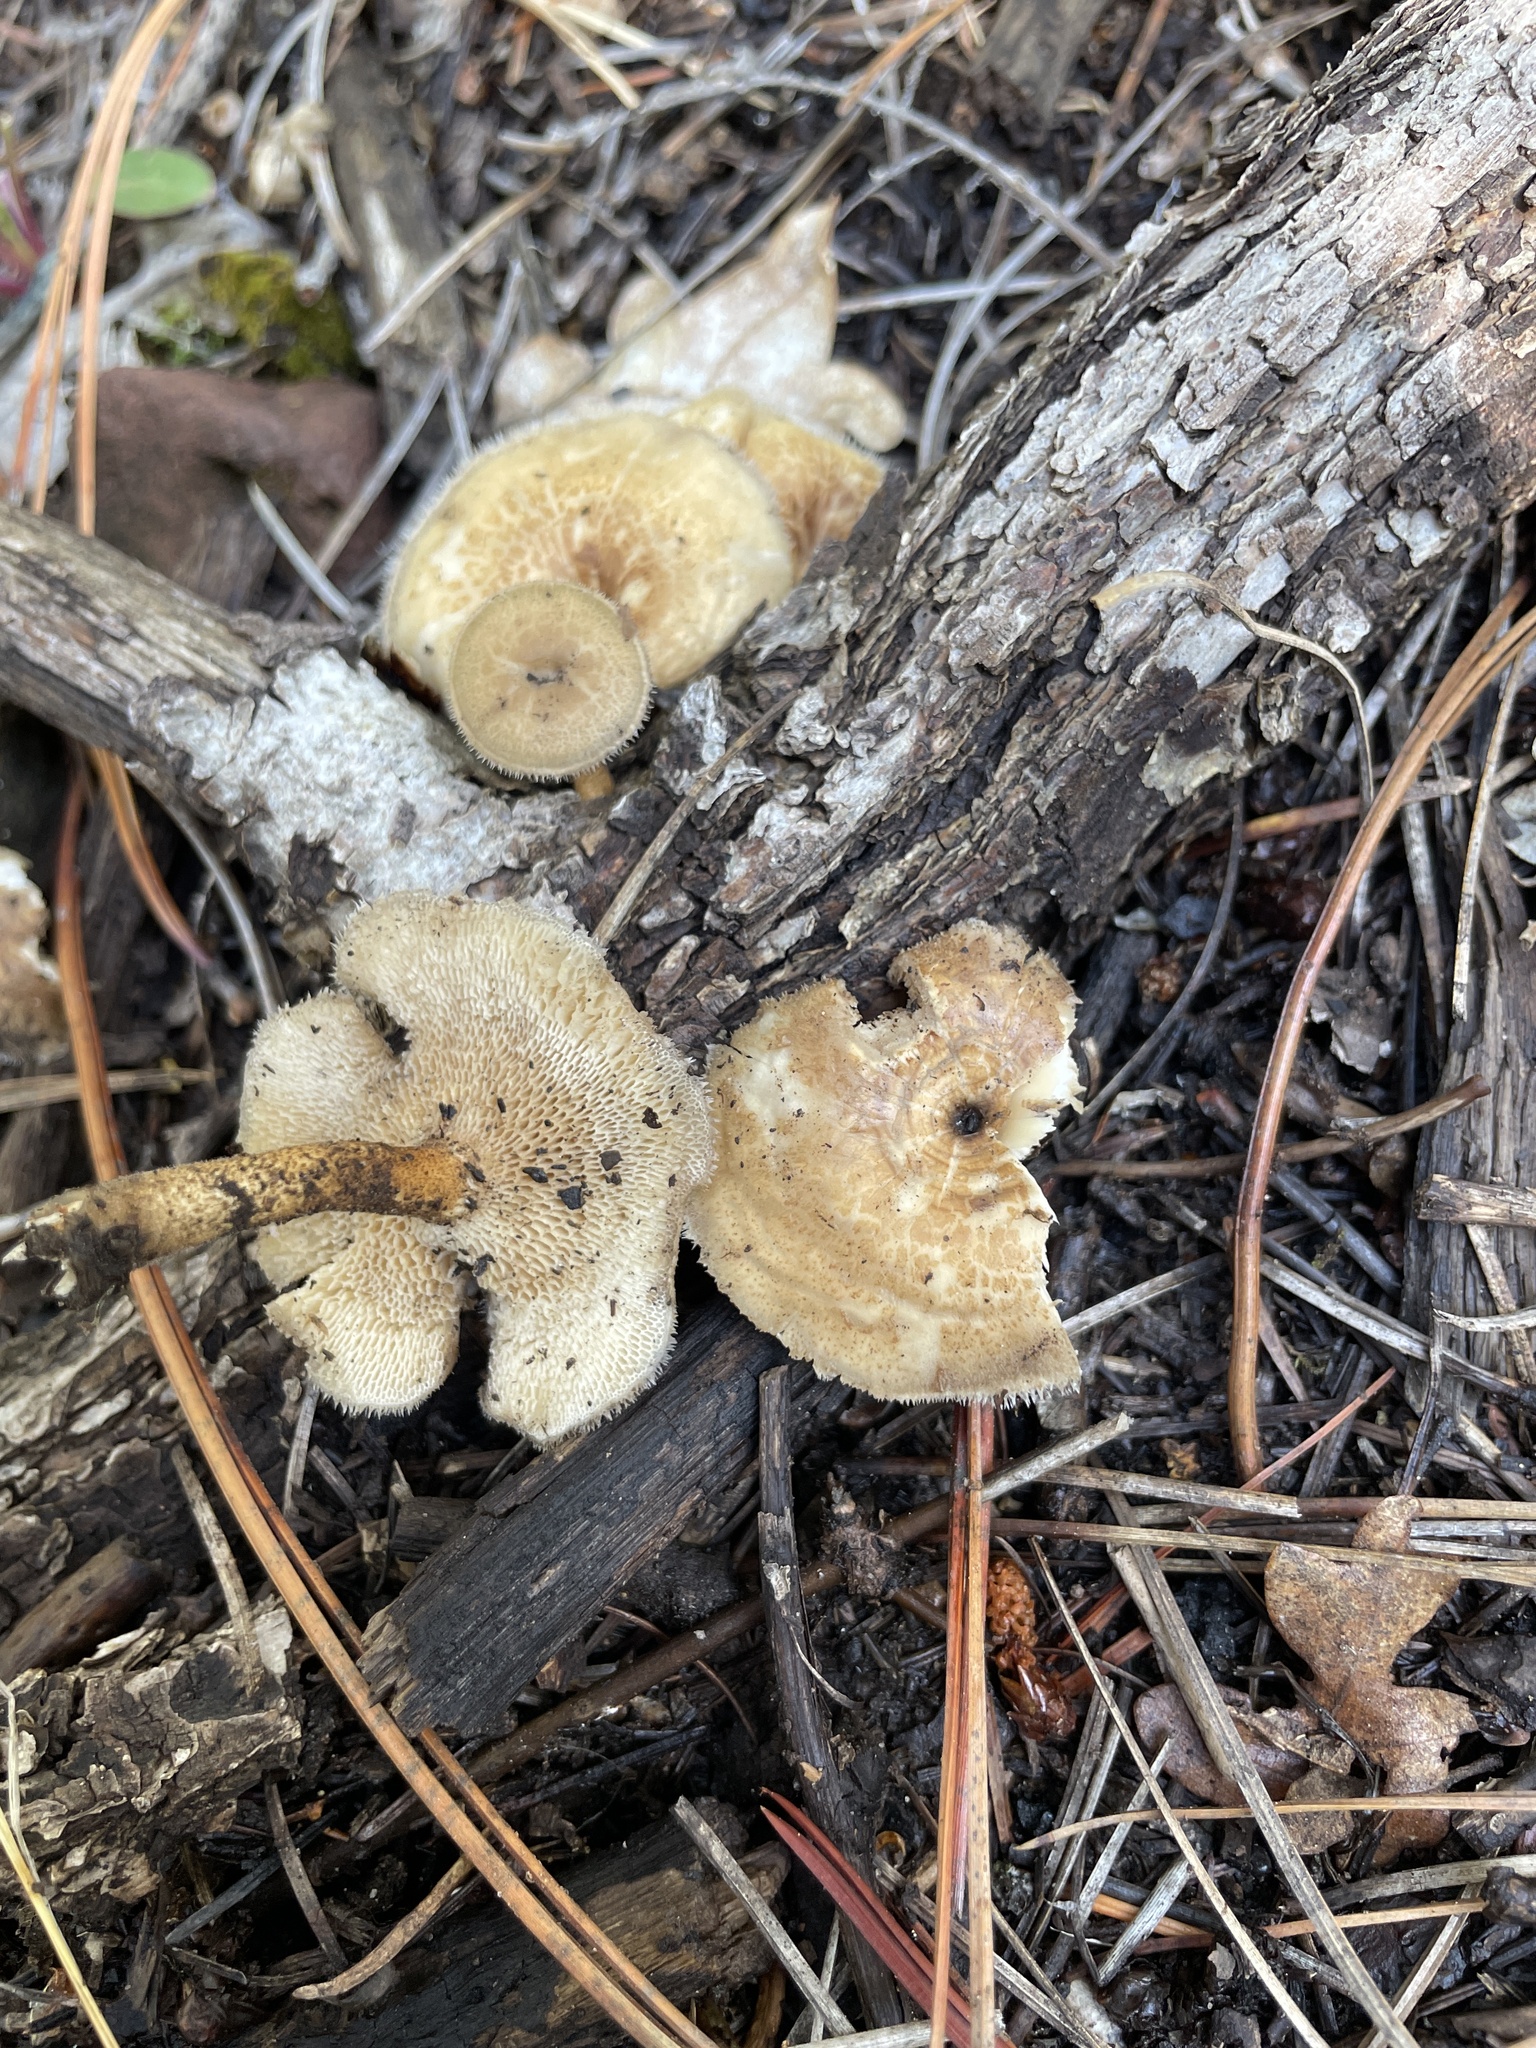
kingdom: Fungi
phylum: Basidiomycota
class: Agaricomycetes
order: Polyporales
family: Polyporaceae
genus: Lentinus
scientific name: Lentinus arcularius
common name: Spring polypore
